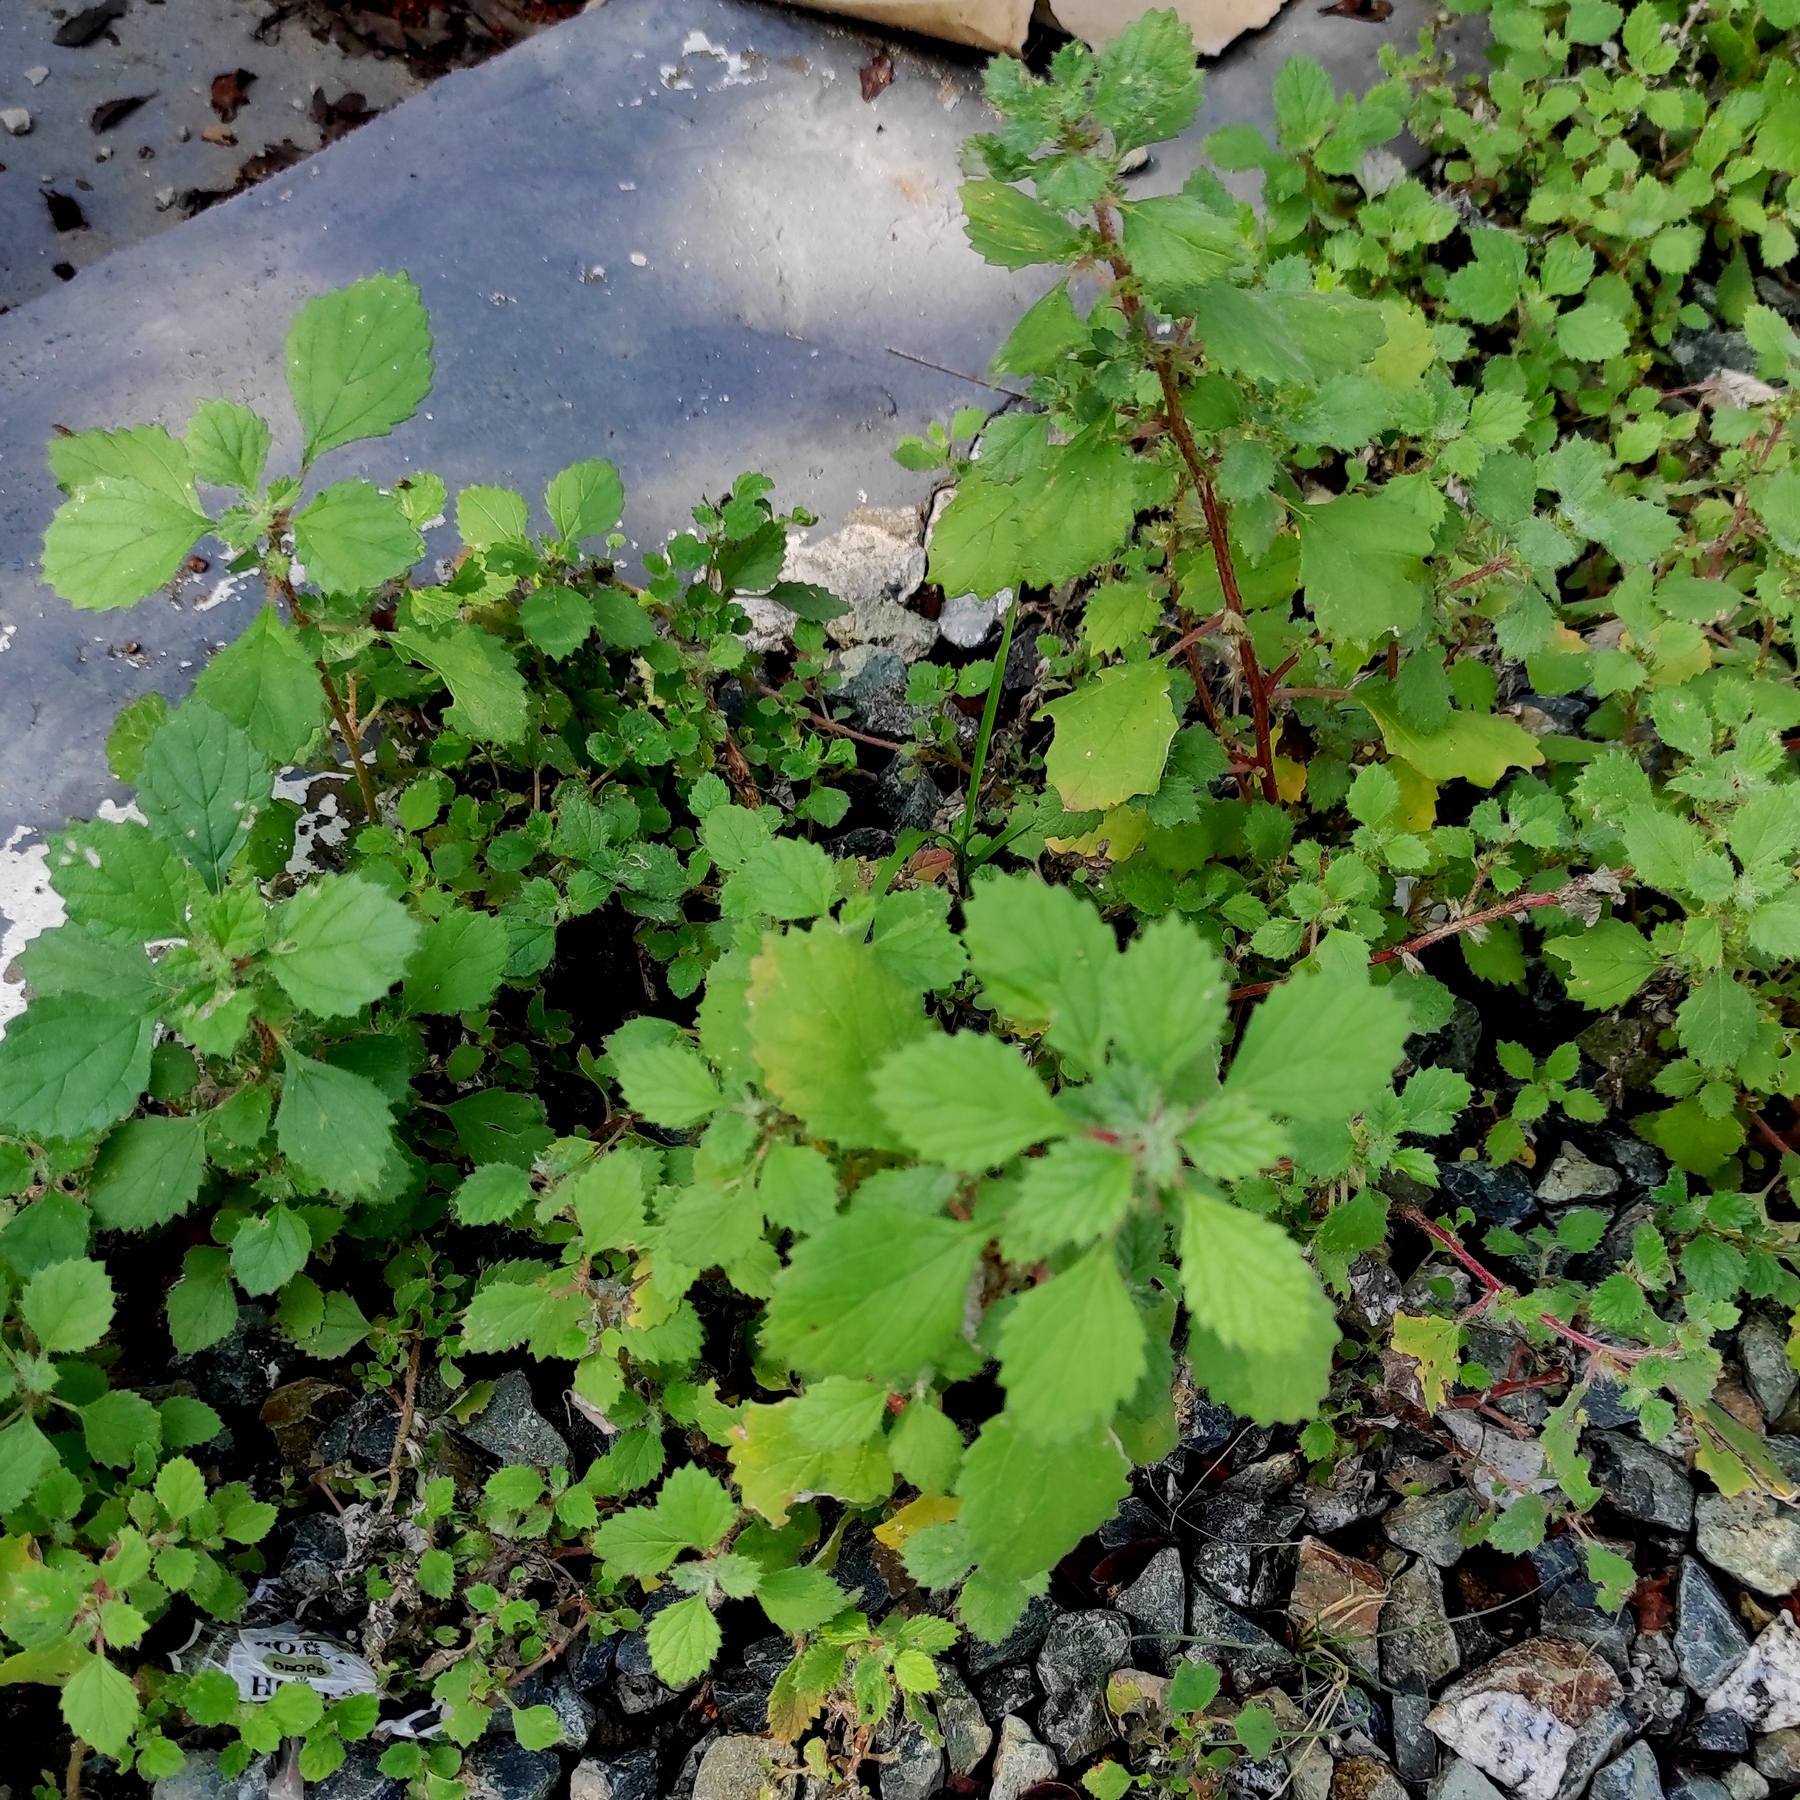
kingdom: Plantae
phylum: Tracheophyta
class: Magnoliopsida
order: Rosales
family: Urticaceae
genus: Forsskaolea
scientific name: Forsskaolea tenacissima
